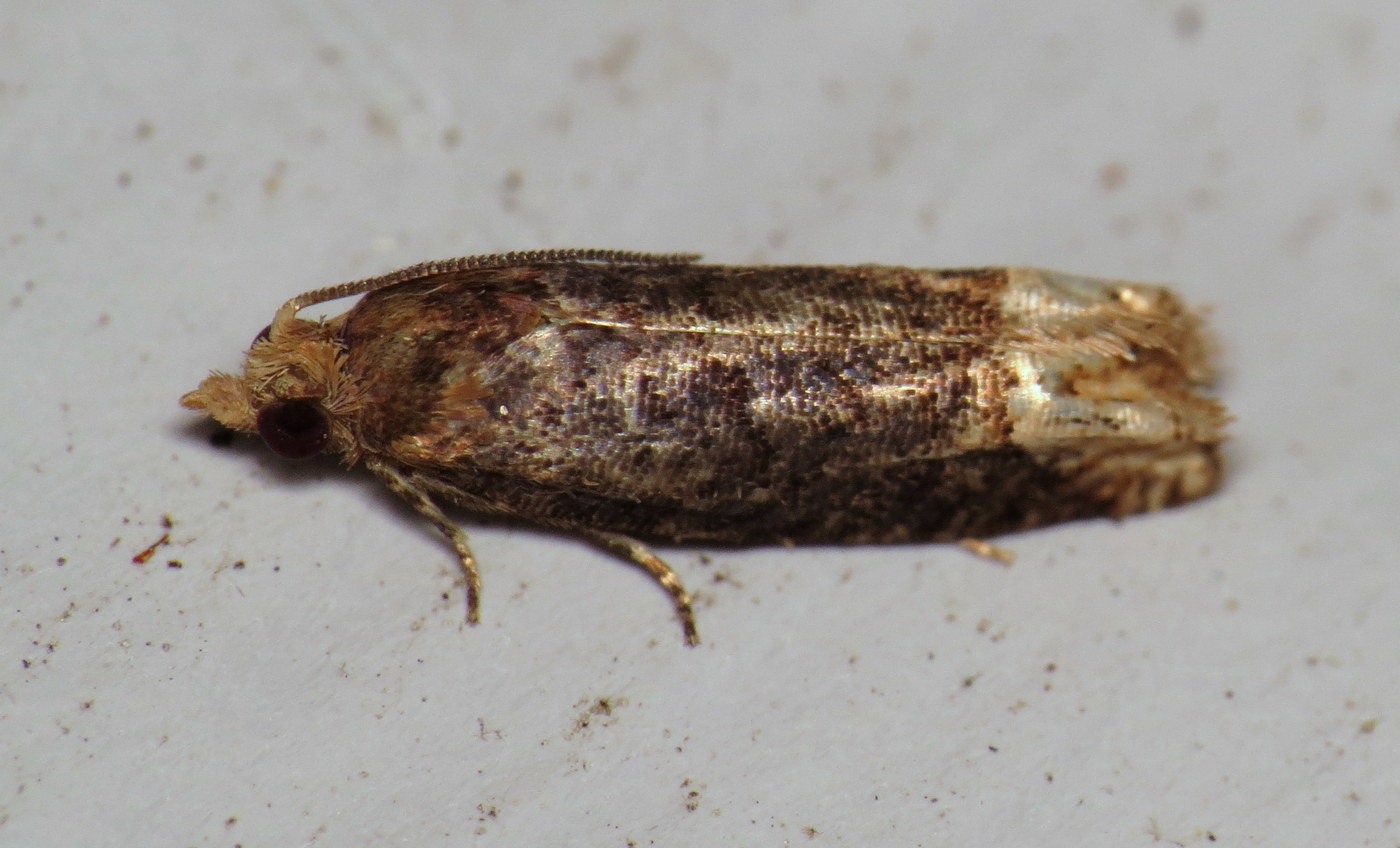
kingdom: Animalia
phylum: Arthropoda
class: Insecta
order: Lepidoptera
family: Tortricidae
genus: Eucosma
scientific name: Eucosma ochroterminana
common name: Buff-tipped eucosma moth
